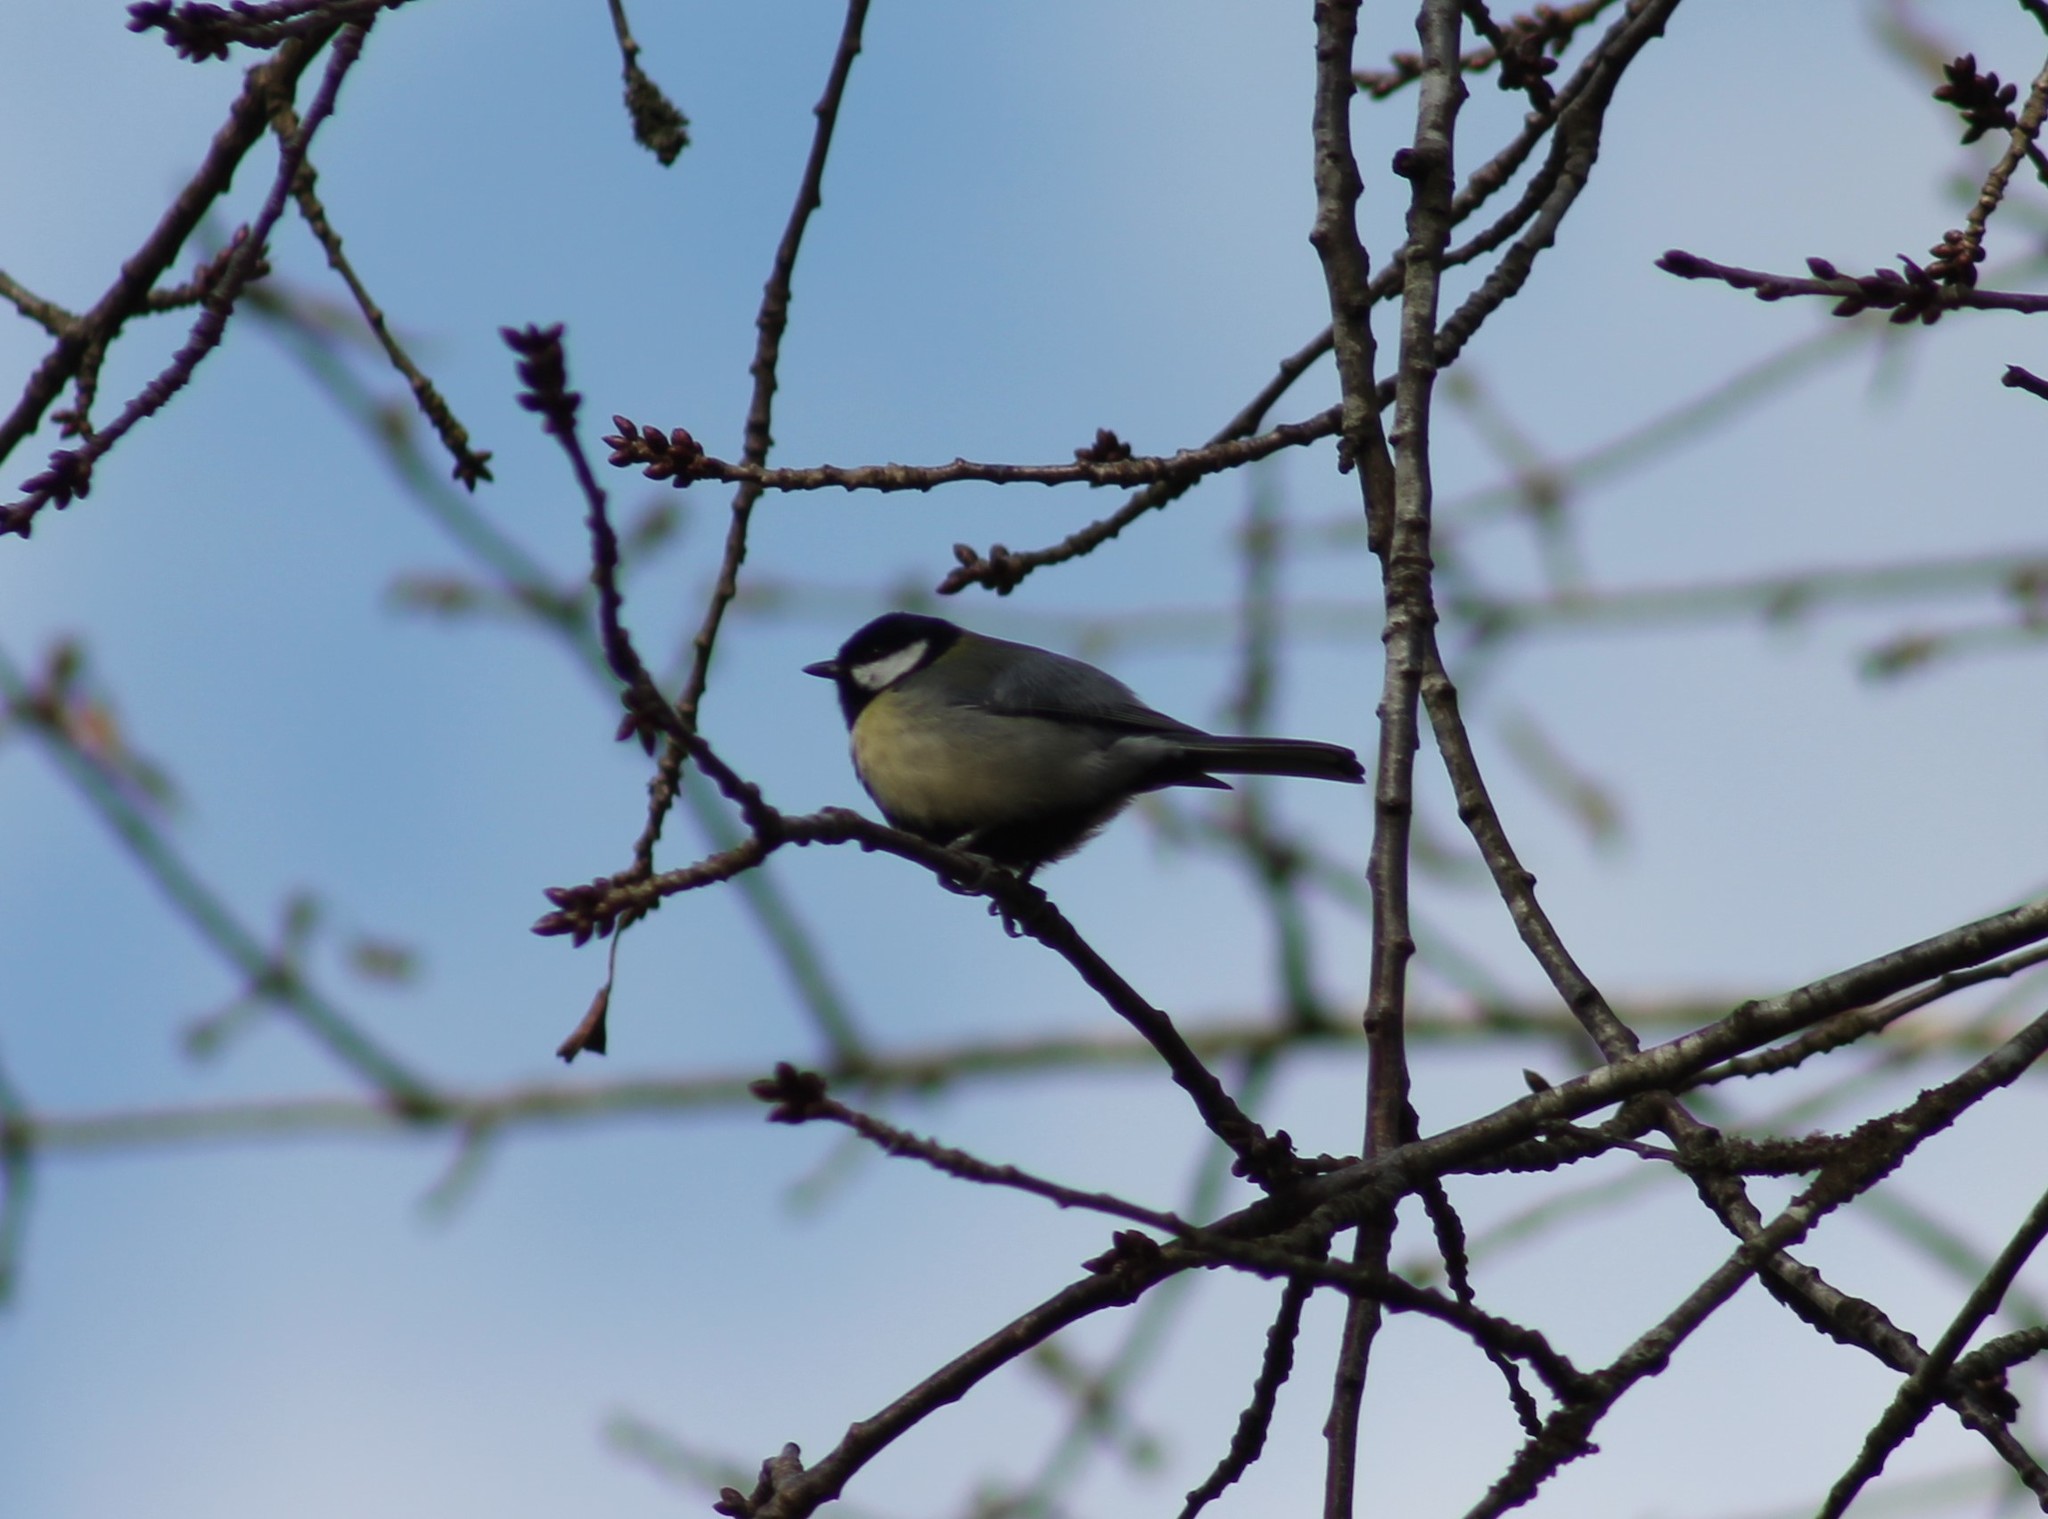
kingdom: Animalia
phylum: Chordata
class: Aves
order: Passeriformes
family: Paridae
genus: Parus
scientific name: Parus major
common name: Great tit
